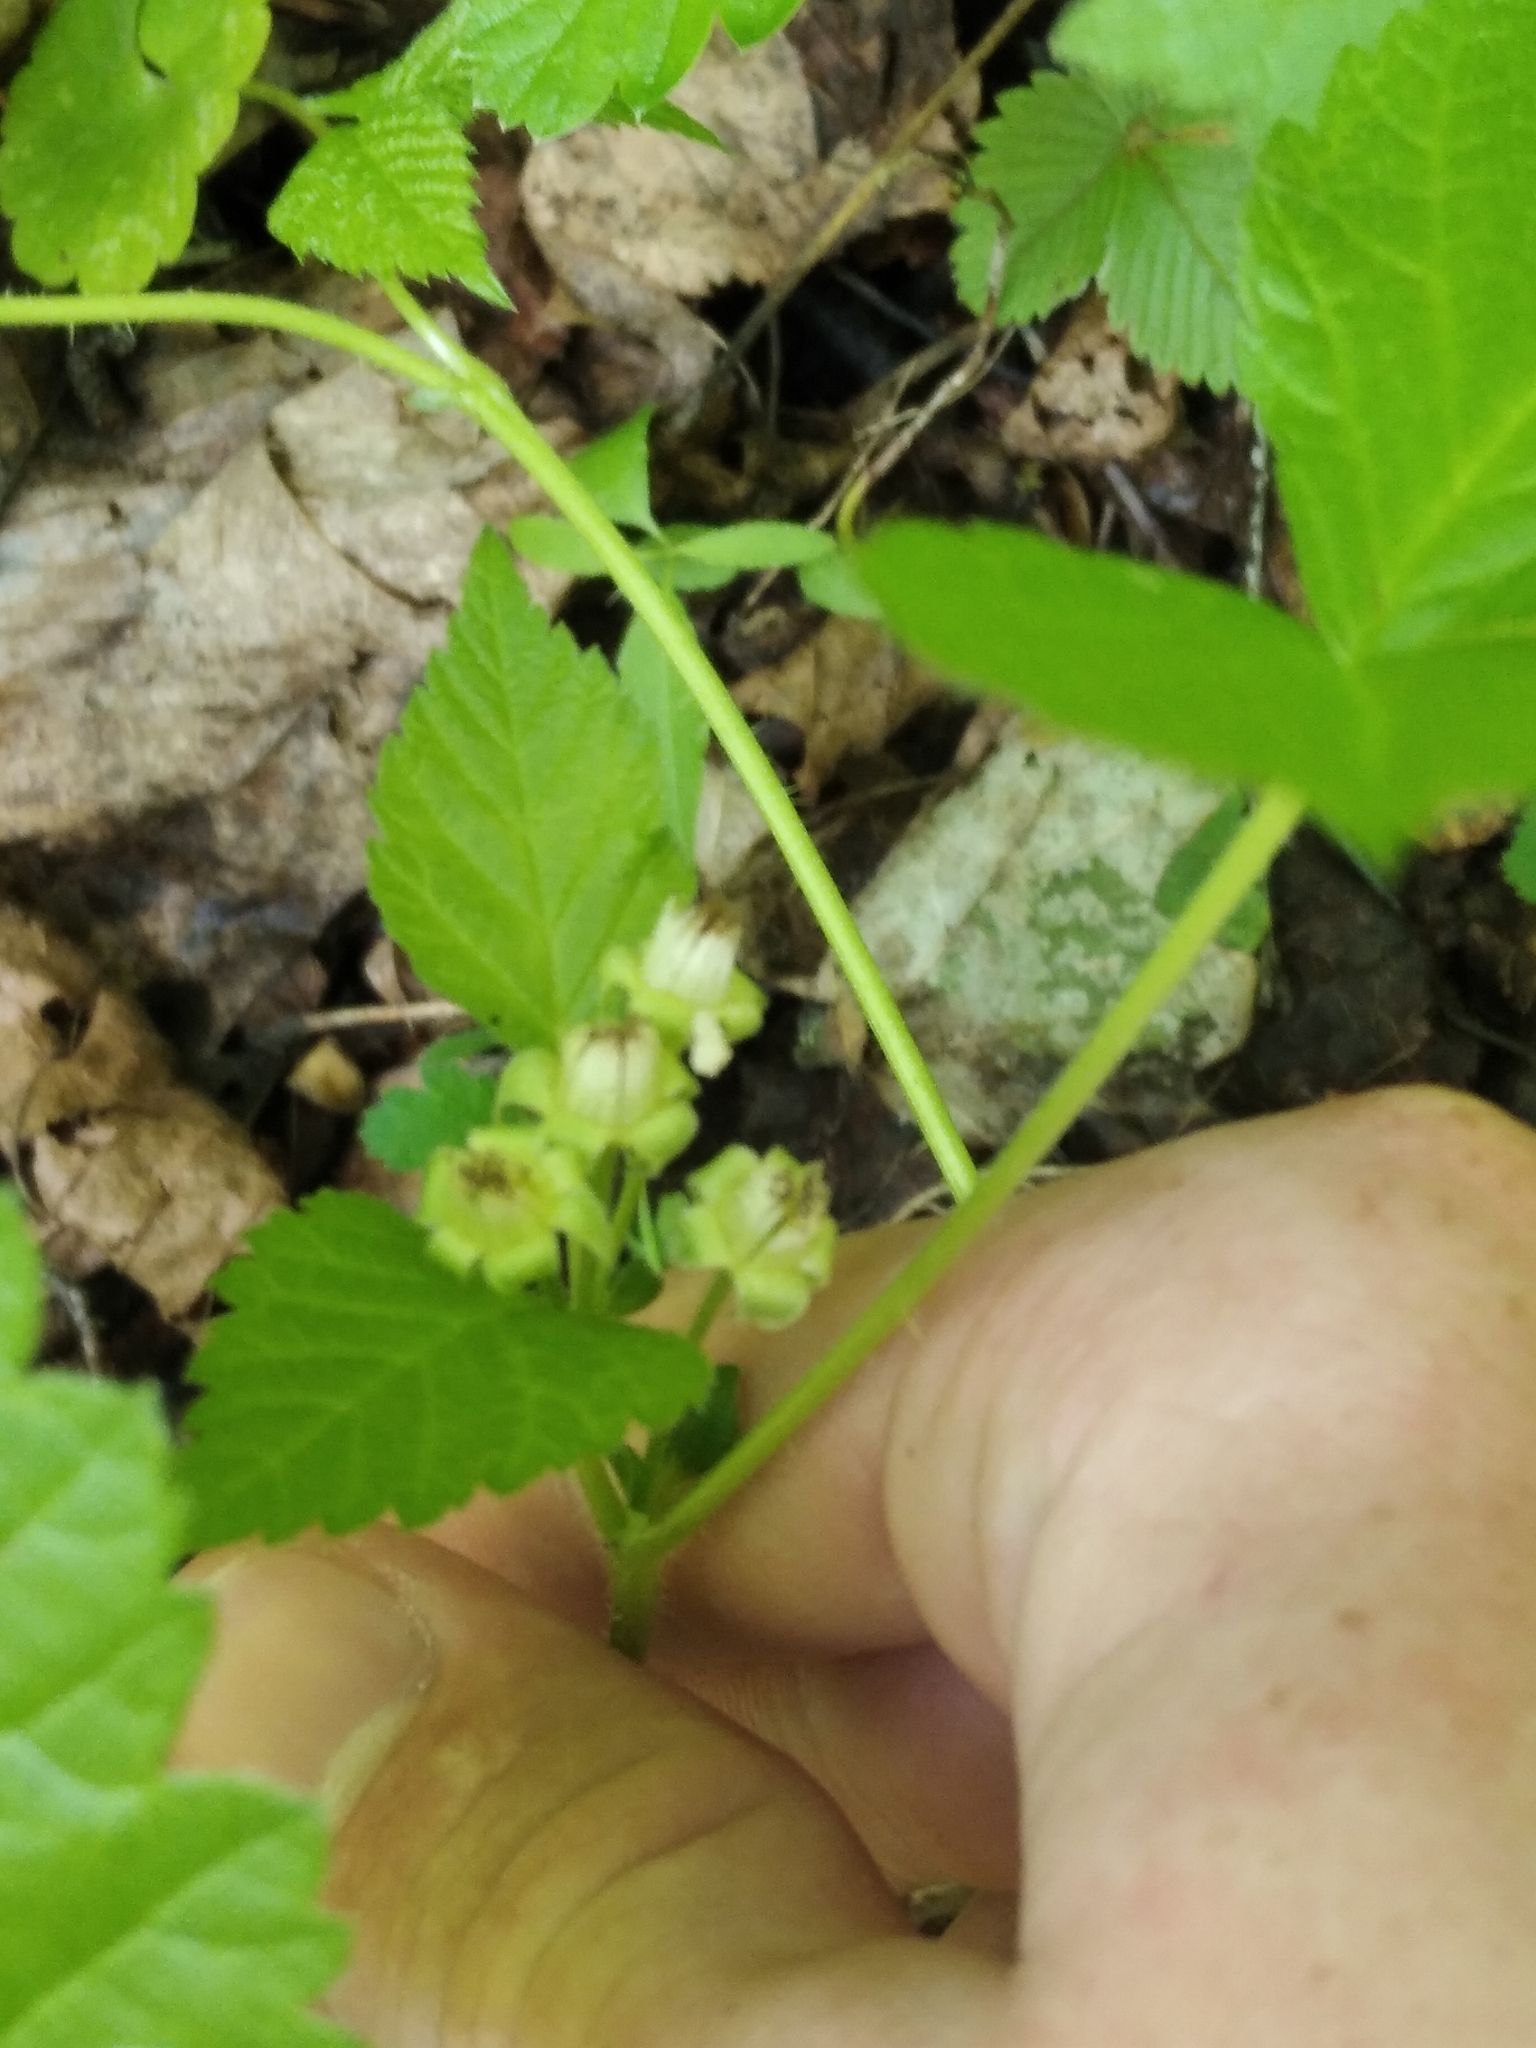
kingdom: Plantae
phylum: Tracheophyta
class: Magnoliopsida
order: Rosales
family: Rosaceae
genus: Rubus
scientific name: Rubus saxatilis
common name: Stone bramble
